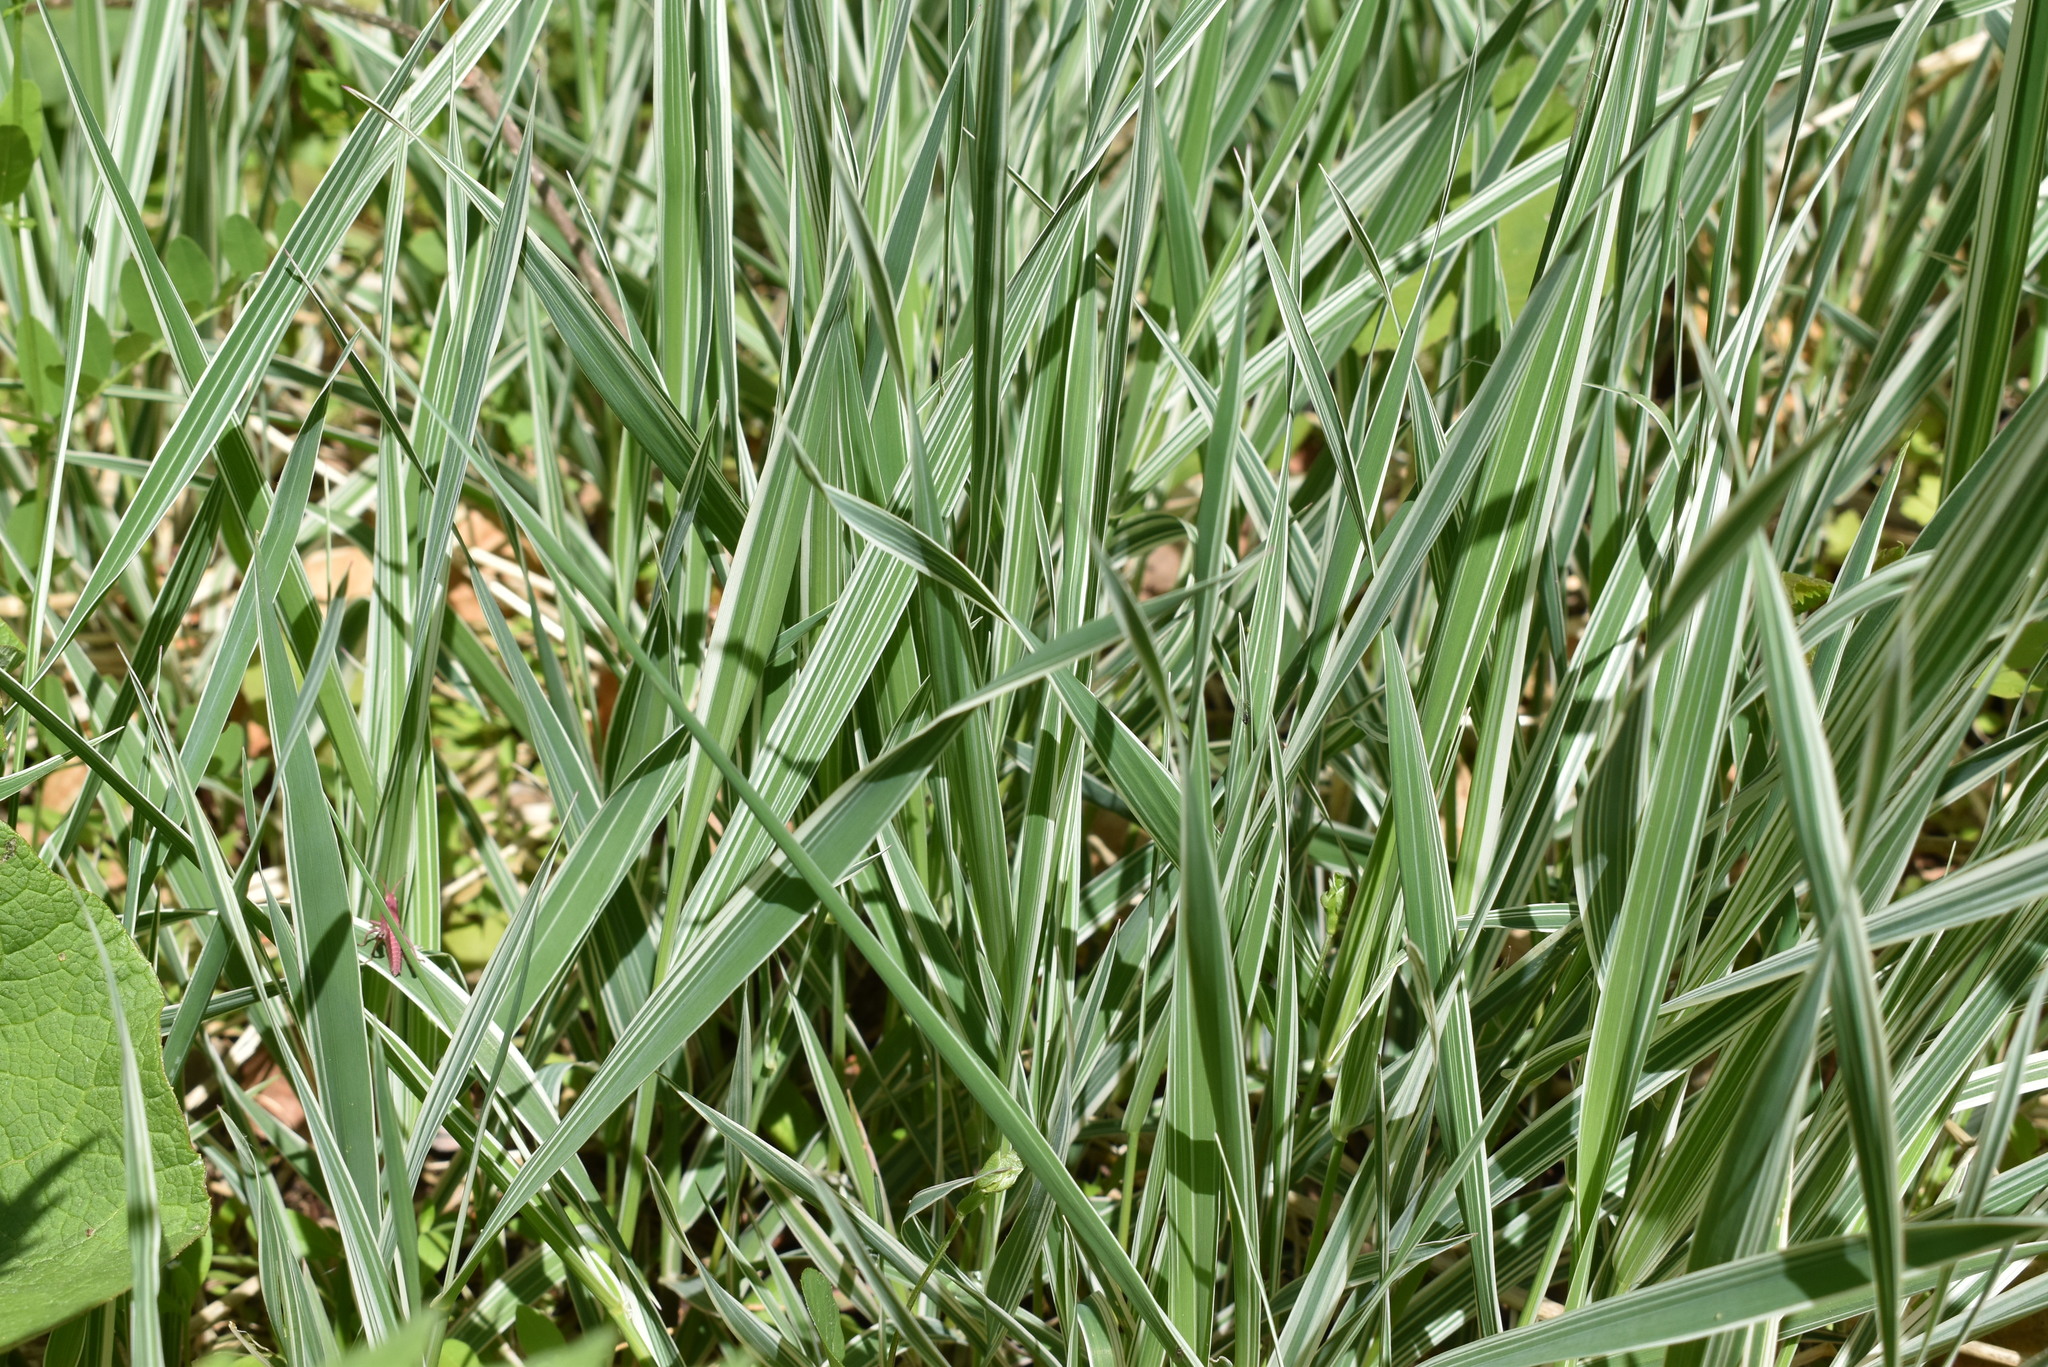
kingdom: Plantae
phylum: Tracheophyta
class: Liliopsida
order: Poales
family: Poaceae
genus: Phalaris
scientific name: Phalaris arundinacea
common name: Reed canary-grass
